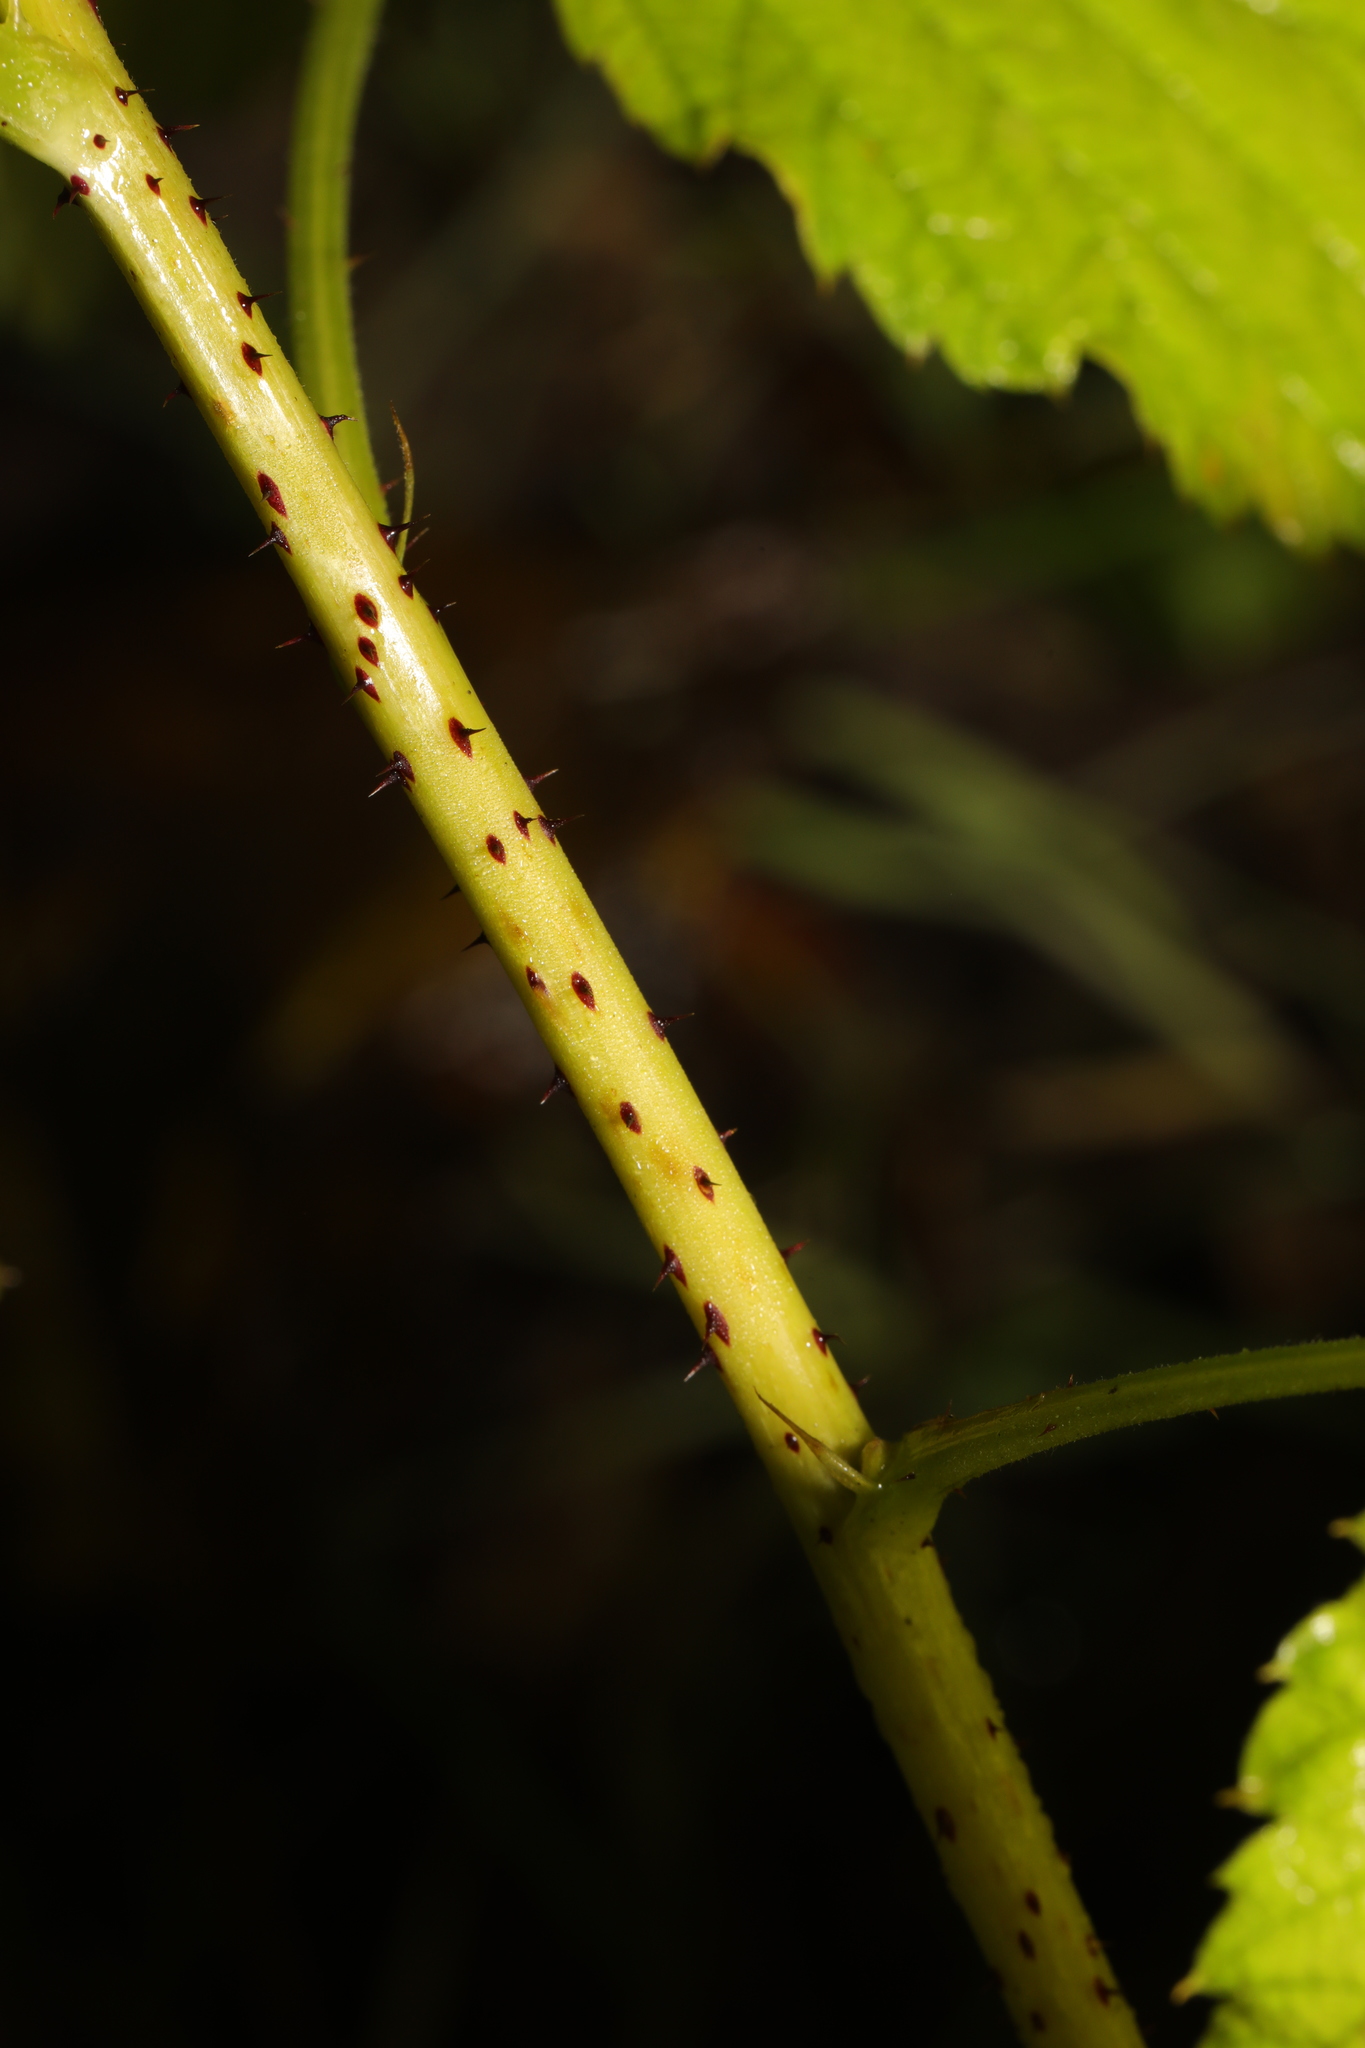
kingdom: Plantae
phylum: Tracheophyta
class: Magnoliopsida
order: Rosales
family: Rosaceae
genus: Rubus
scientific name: Rubus idaeus
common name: Raspberry
